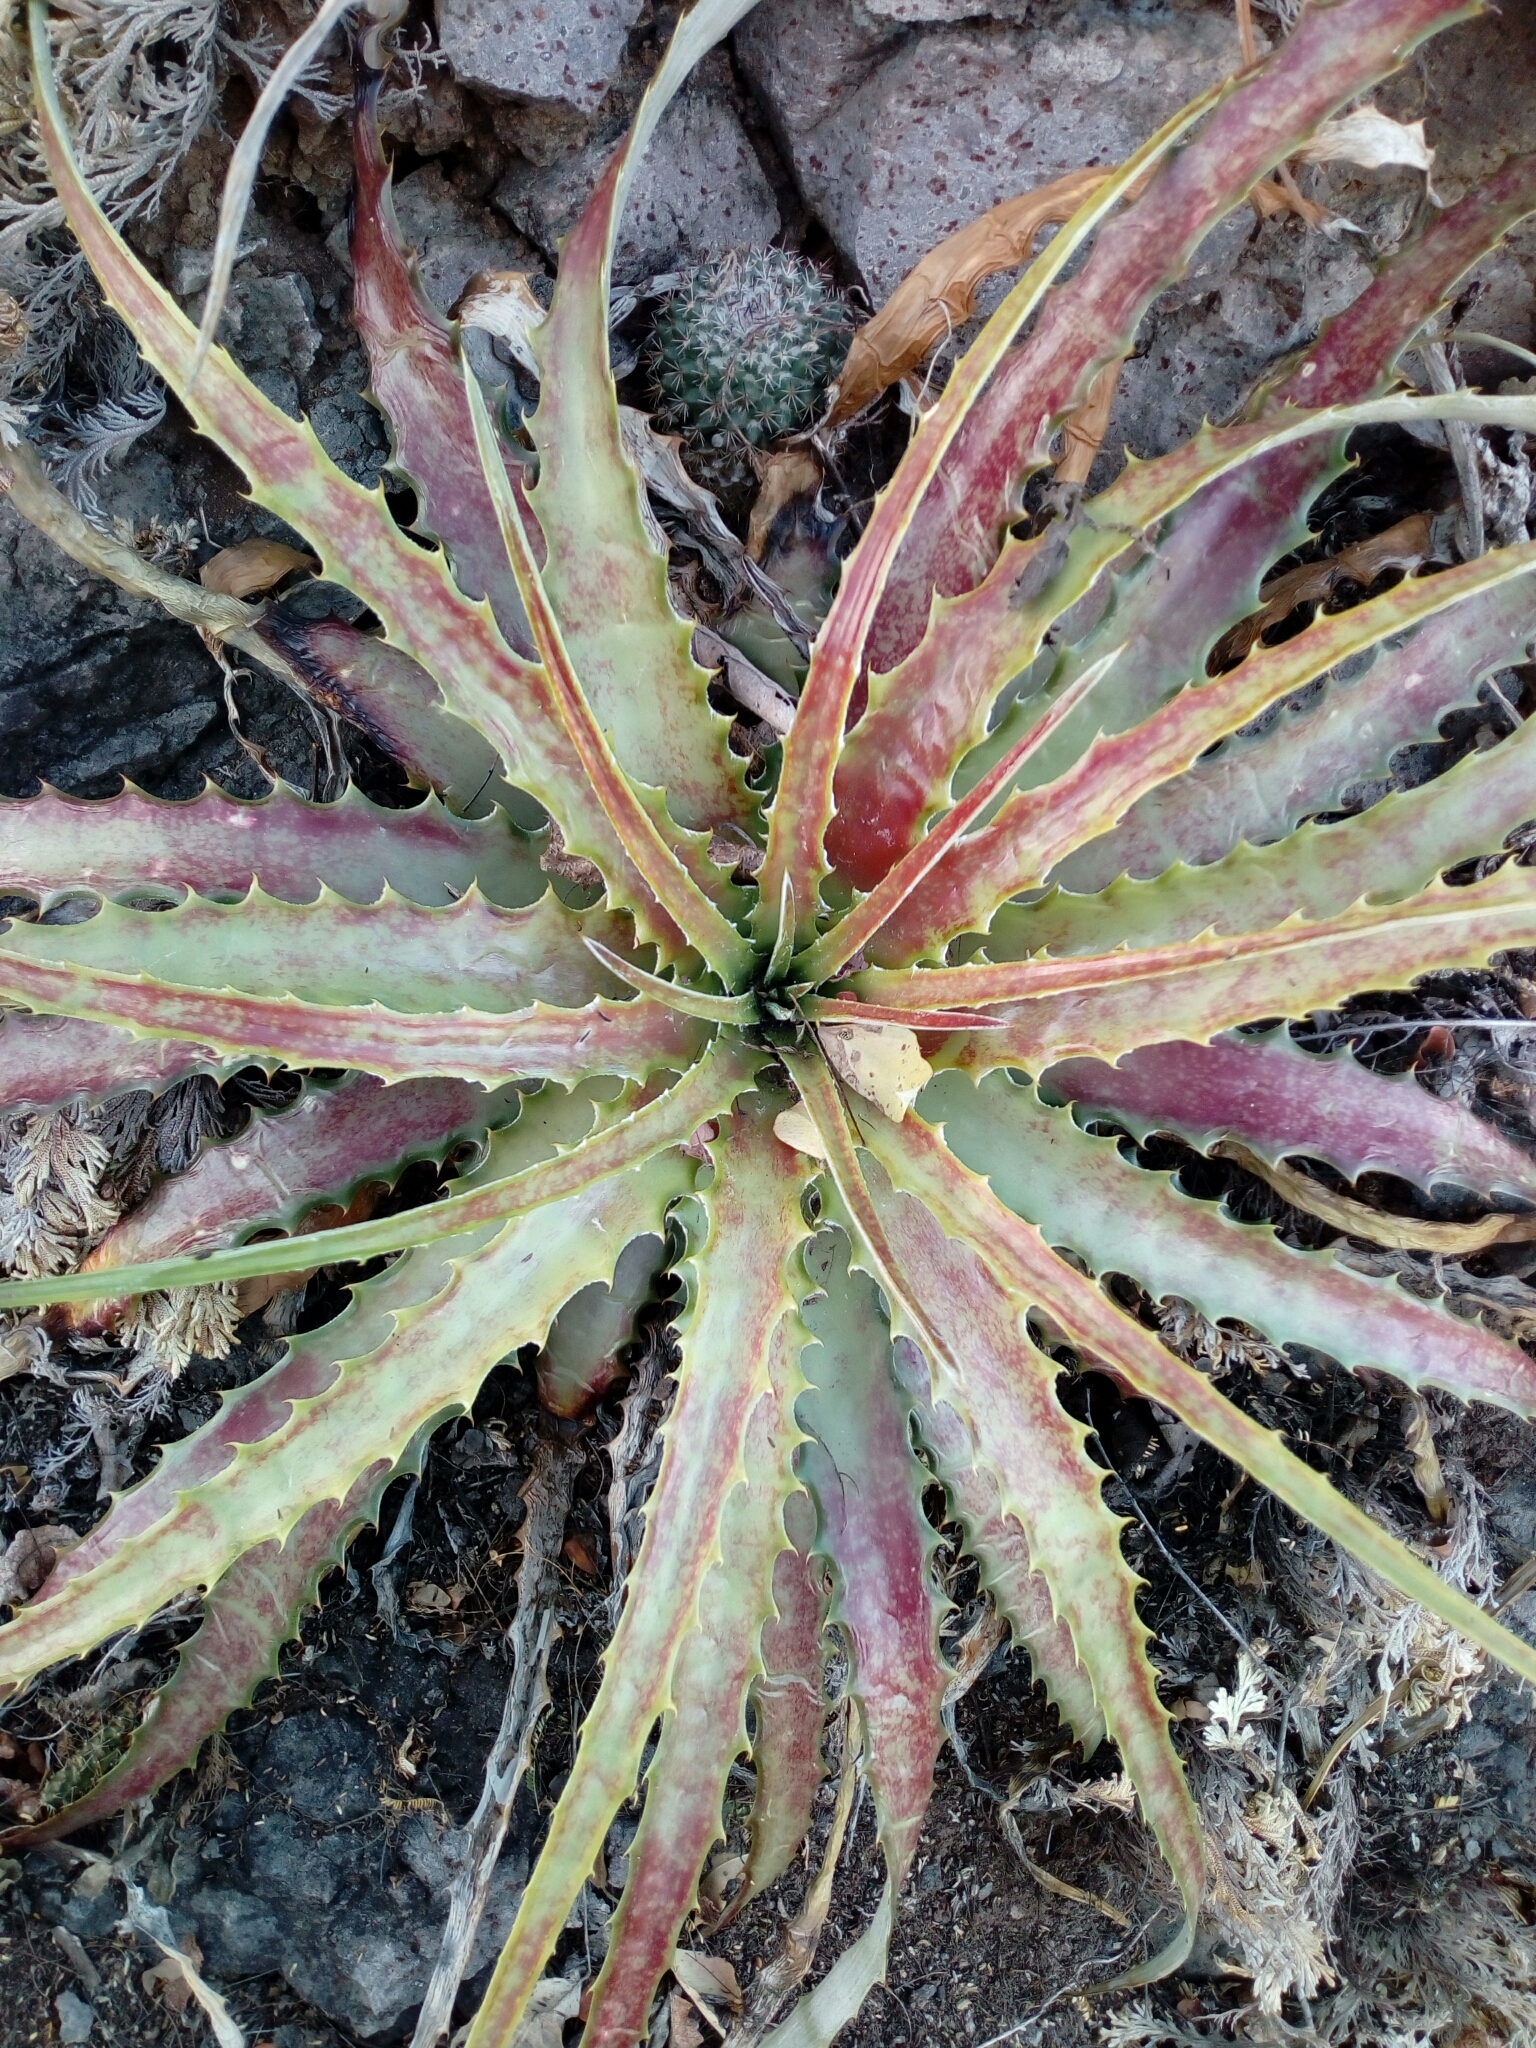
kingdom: Plantae
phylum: Tracheophyta
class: Liliopsida
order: Poales
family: Bromeliaceae
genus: Hechtia
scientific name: Hechtia jaliscana
